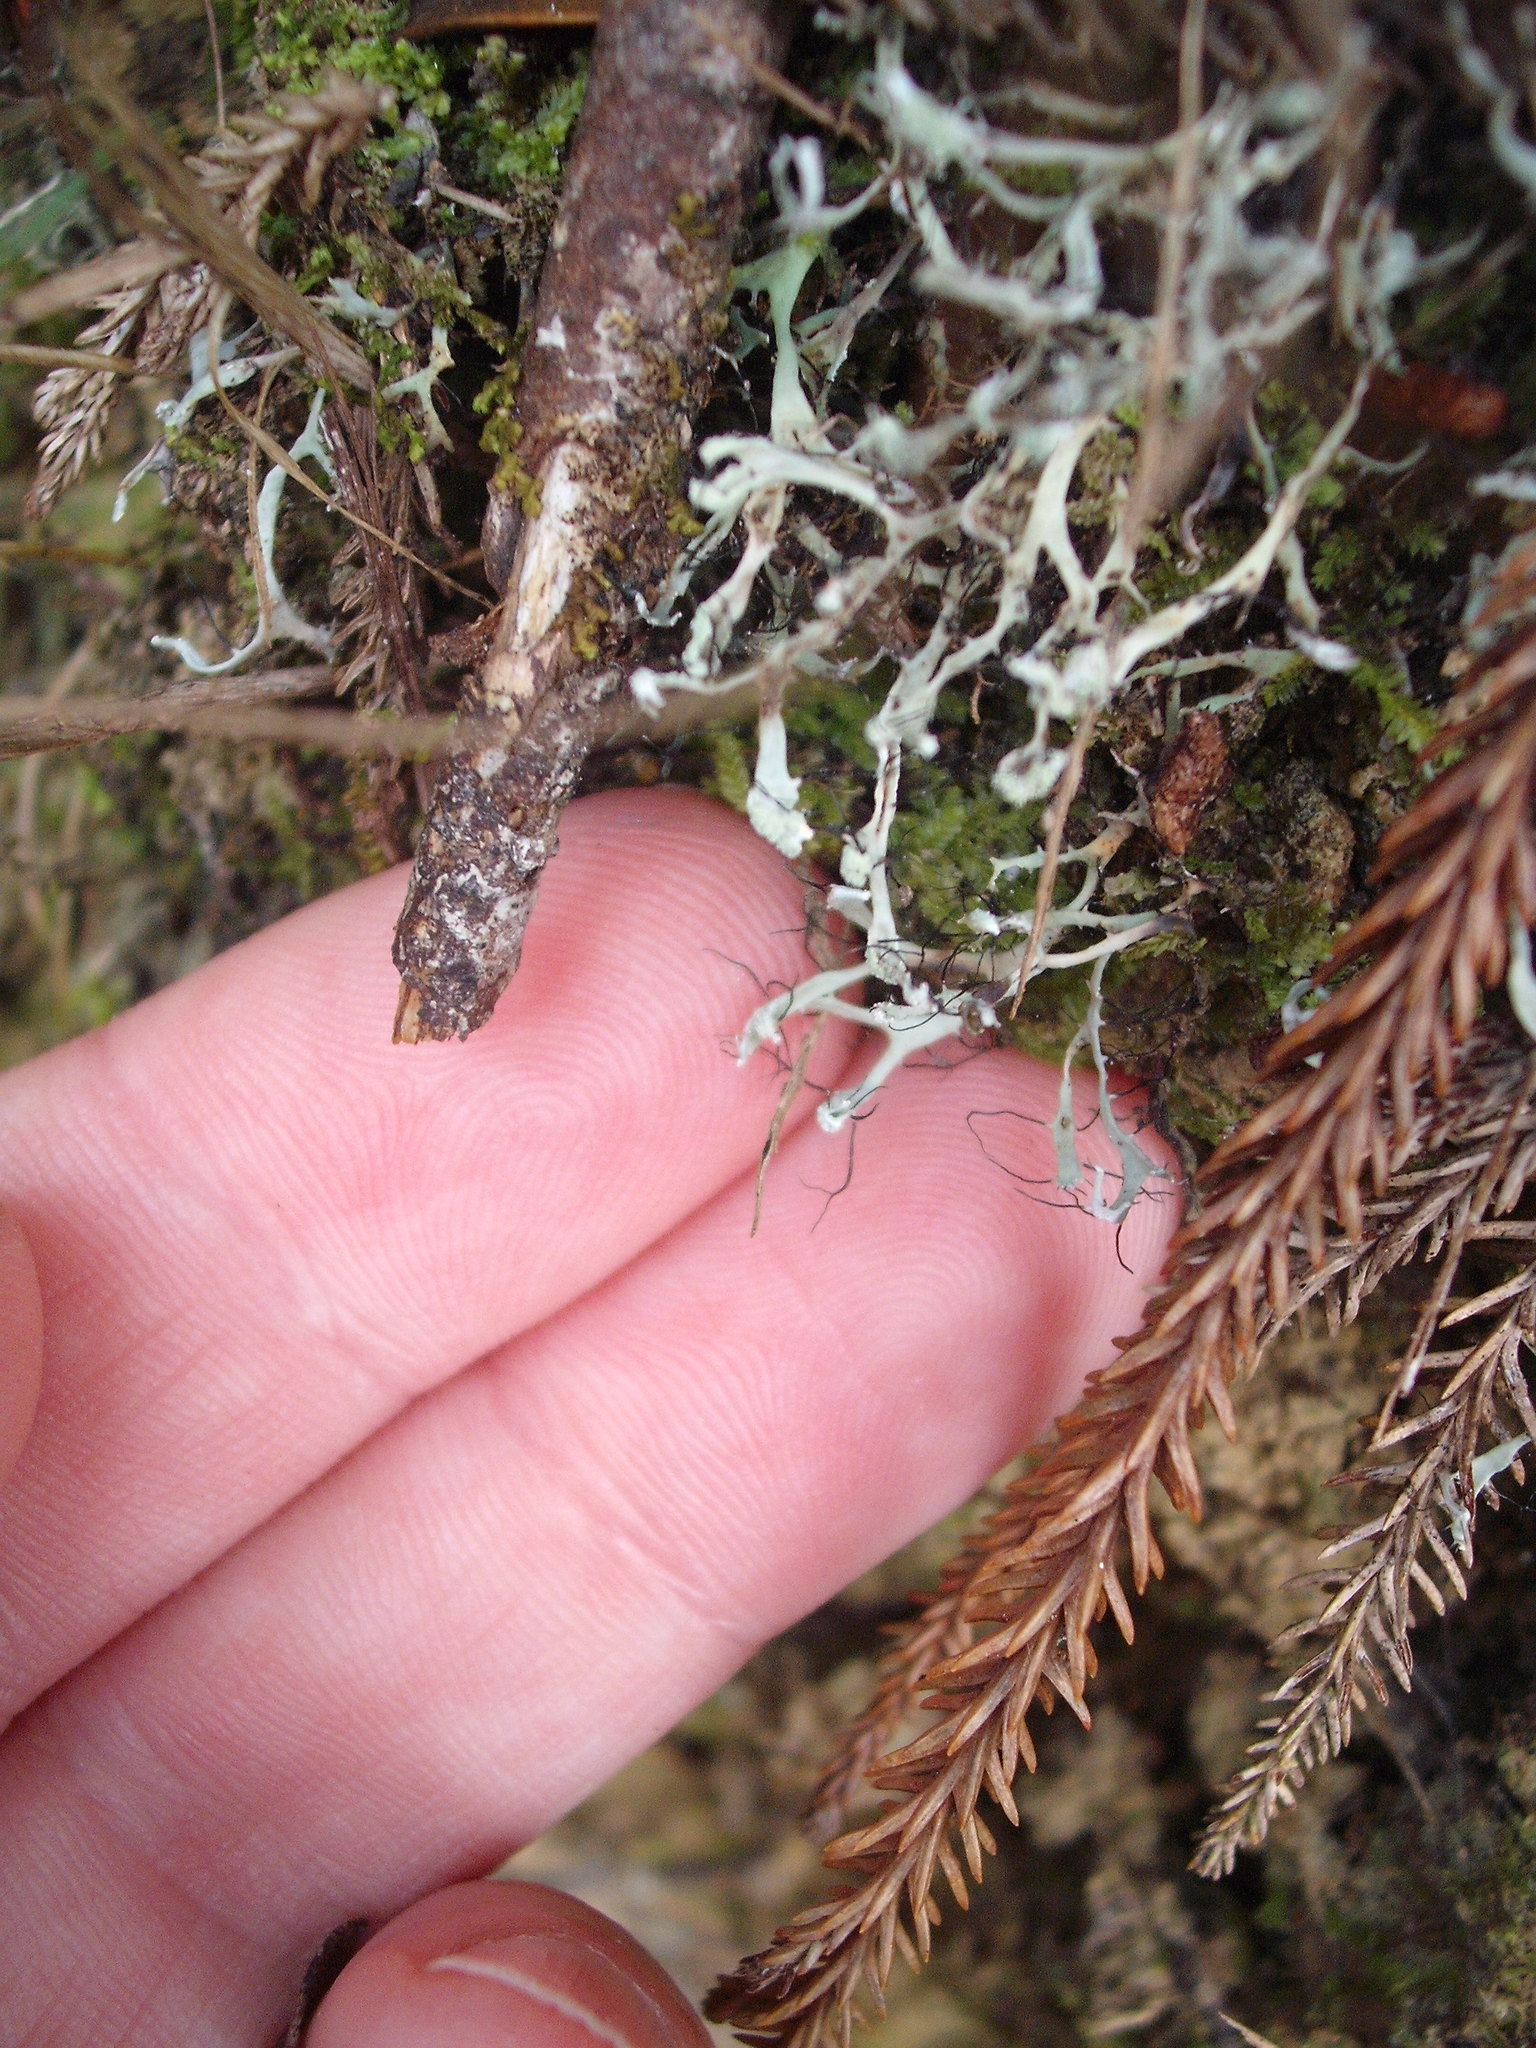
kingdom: Fungi
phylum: Ascomycota
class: Lecanoromycetes
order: Caliciales
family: Physciaceae
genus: Leucodermia
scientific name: Leucodermia leucomelos
